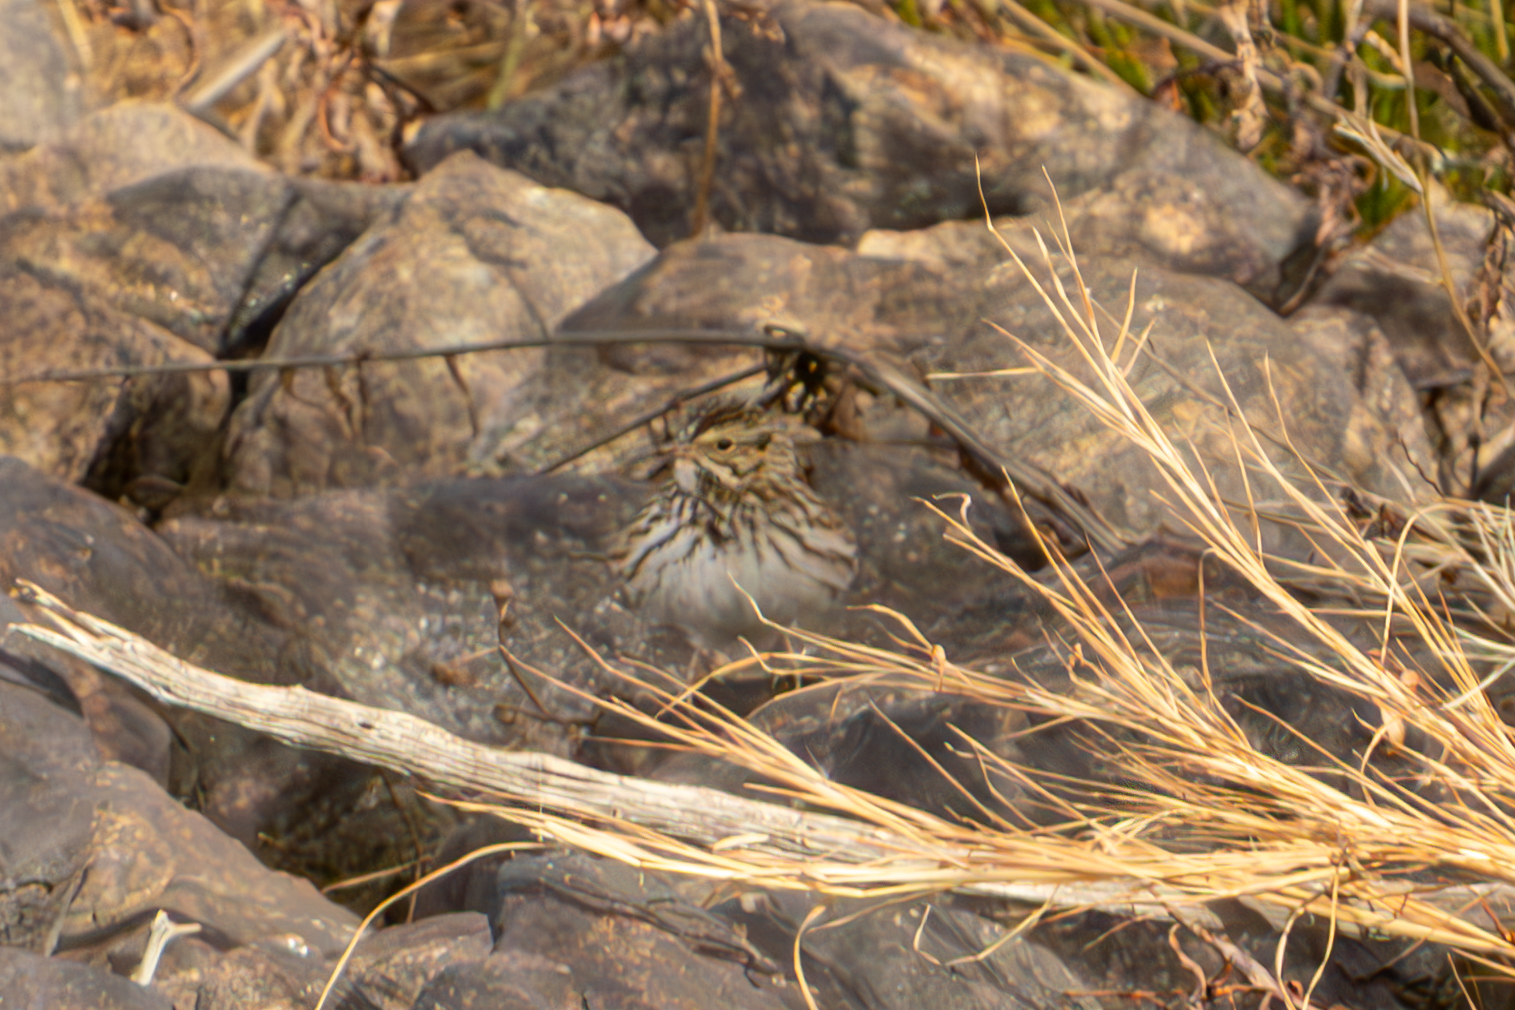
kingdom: Animalia
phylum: Chordata
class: Aves
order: Passeriformes
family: Passerellidae
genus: Passerculus
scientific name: Passerculus sandwichensis
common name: Savannah sparrow
